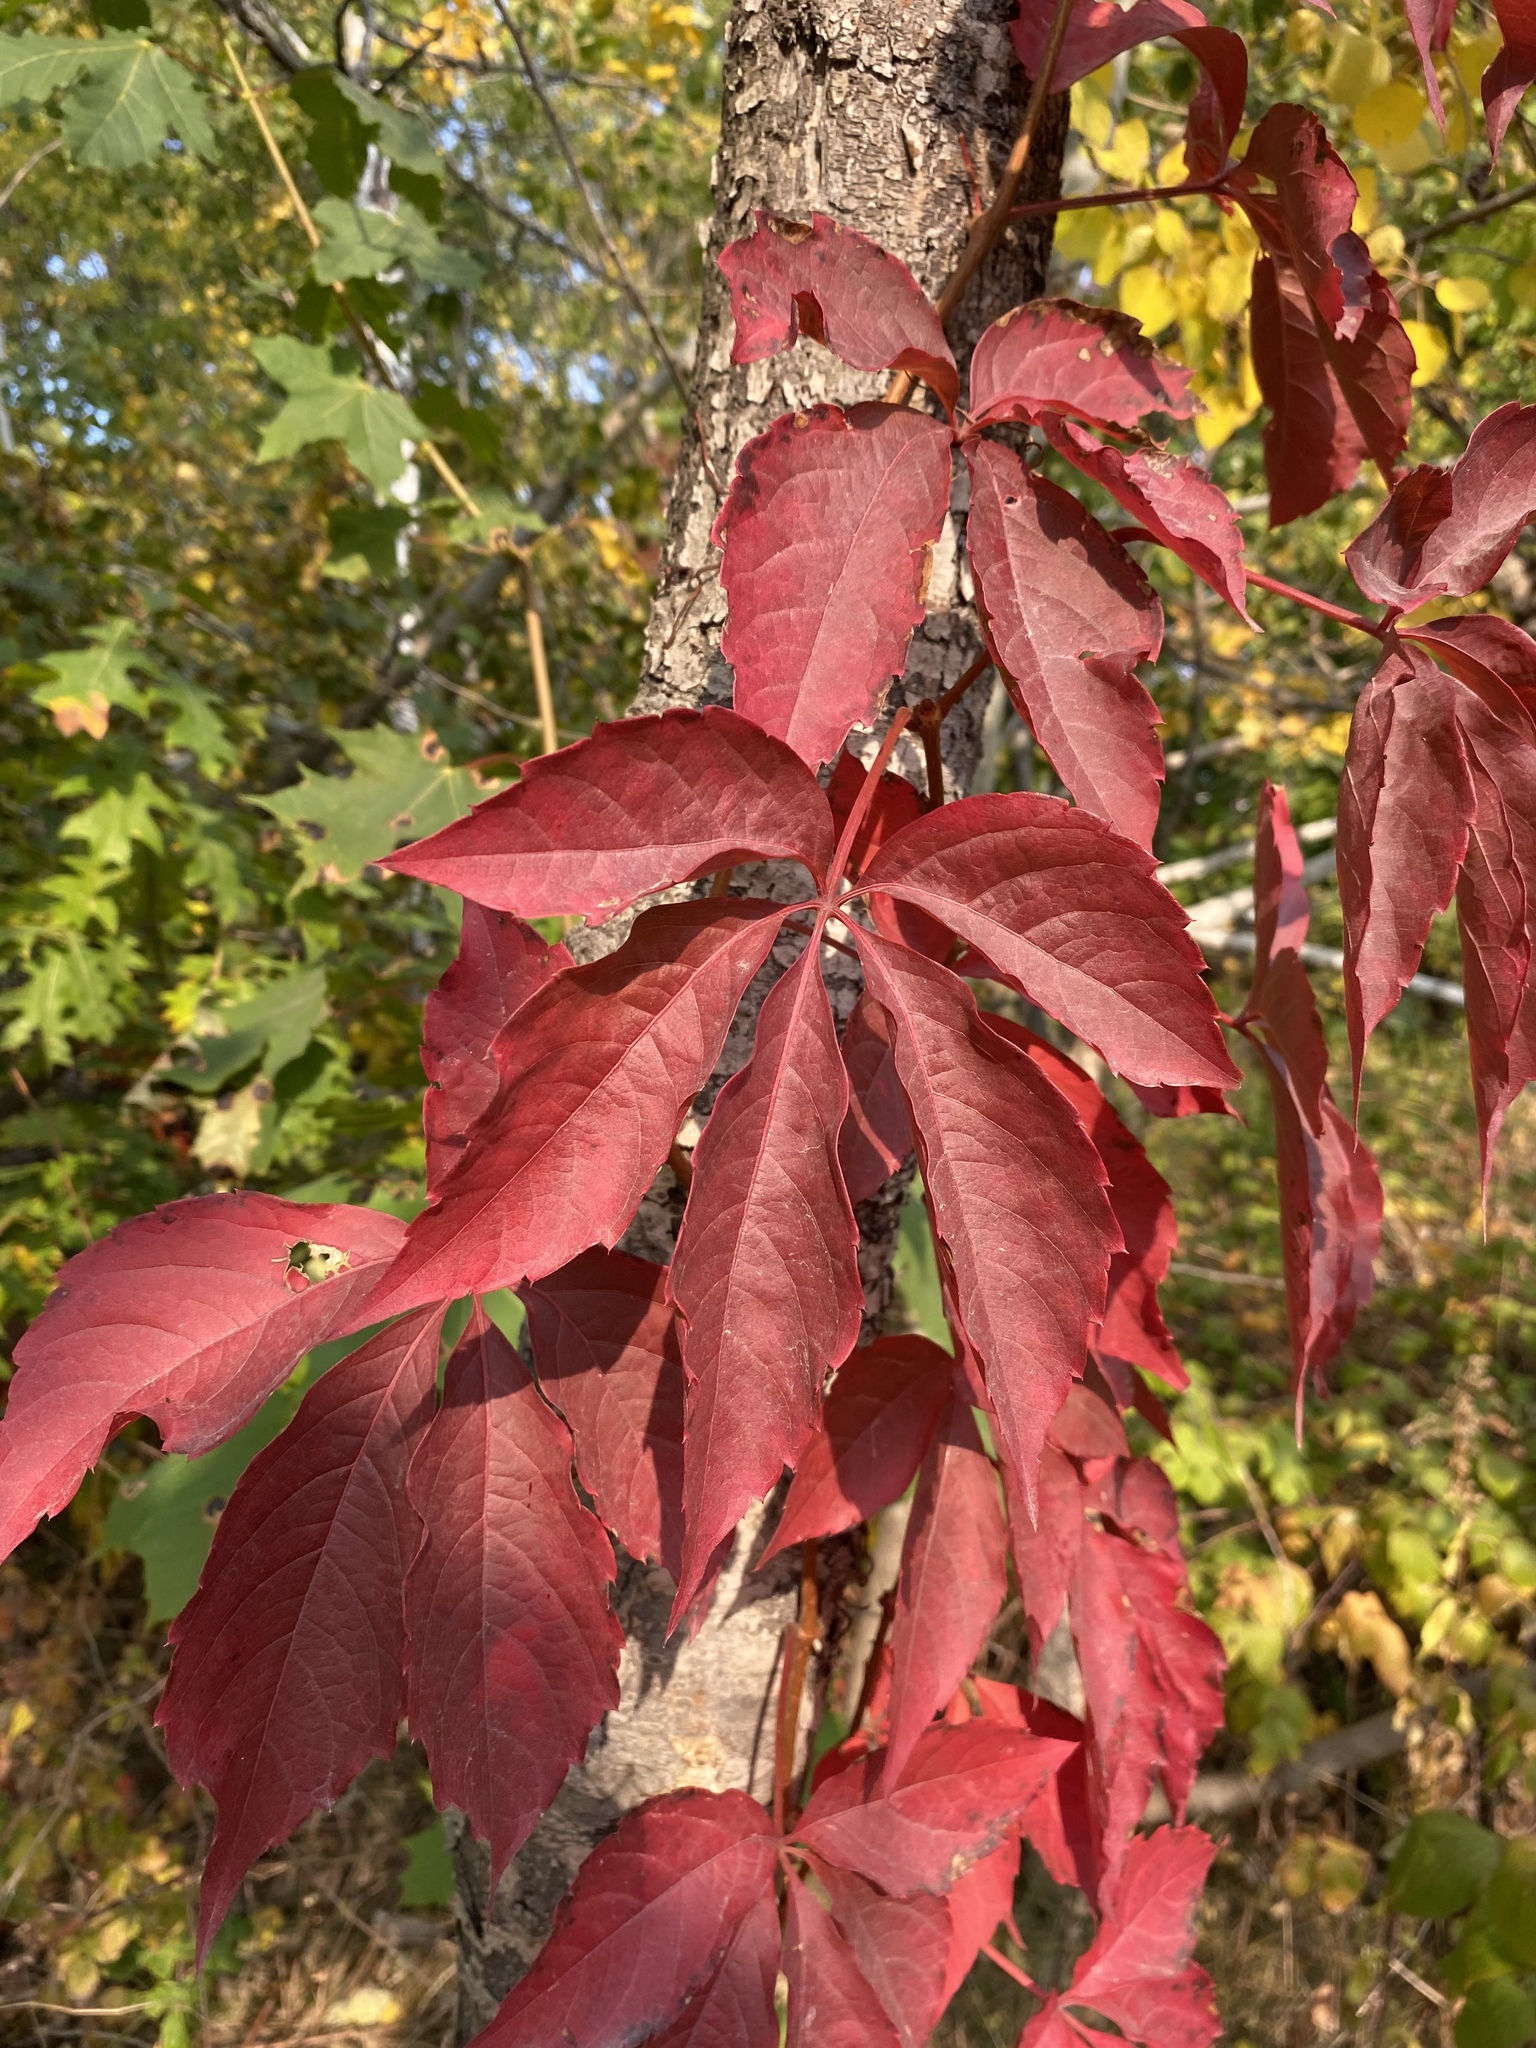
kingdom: Plantae
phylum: Tracheophyta
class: Magnoliopsida
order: Vitales
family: Vitaceae
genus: Parthenocissus
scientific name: Parthenocissus quinquefolia
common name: Virginia-creeper
